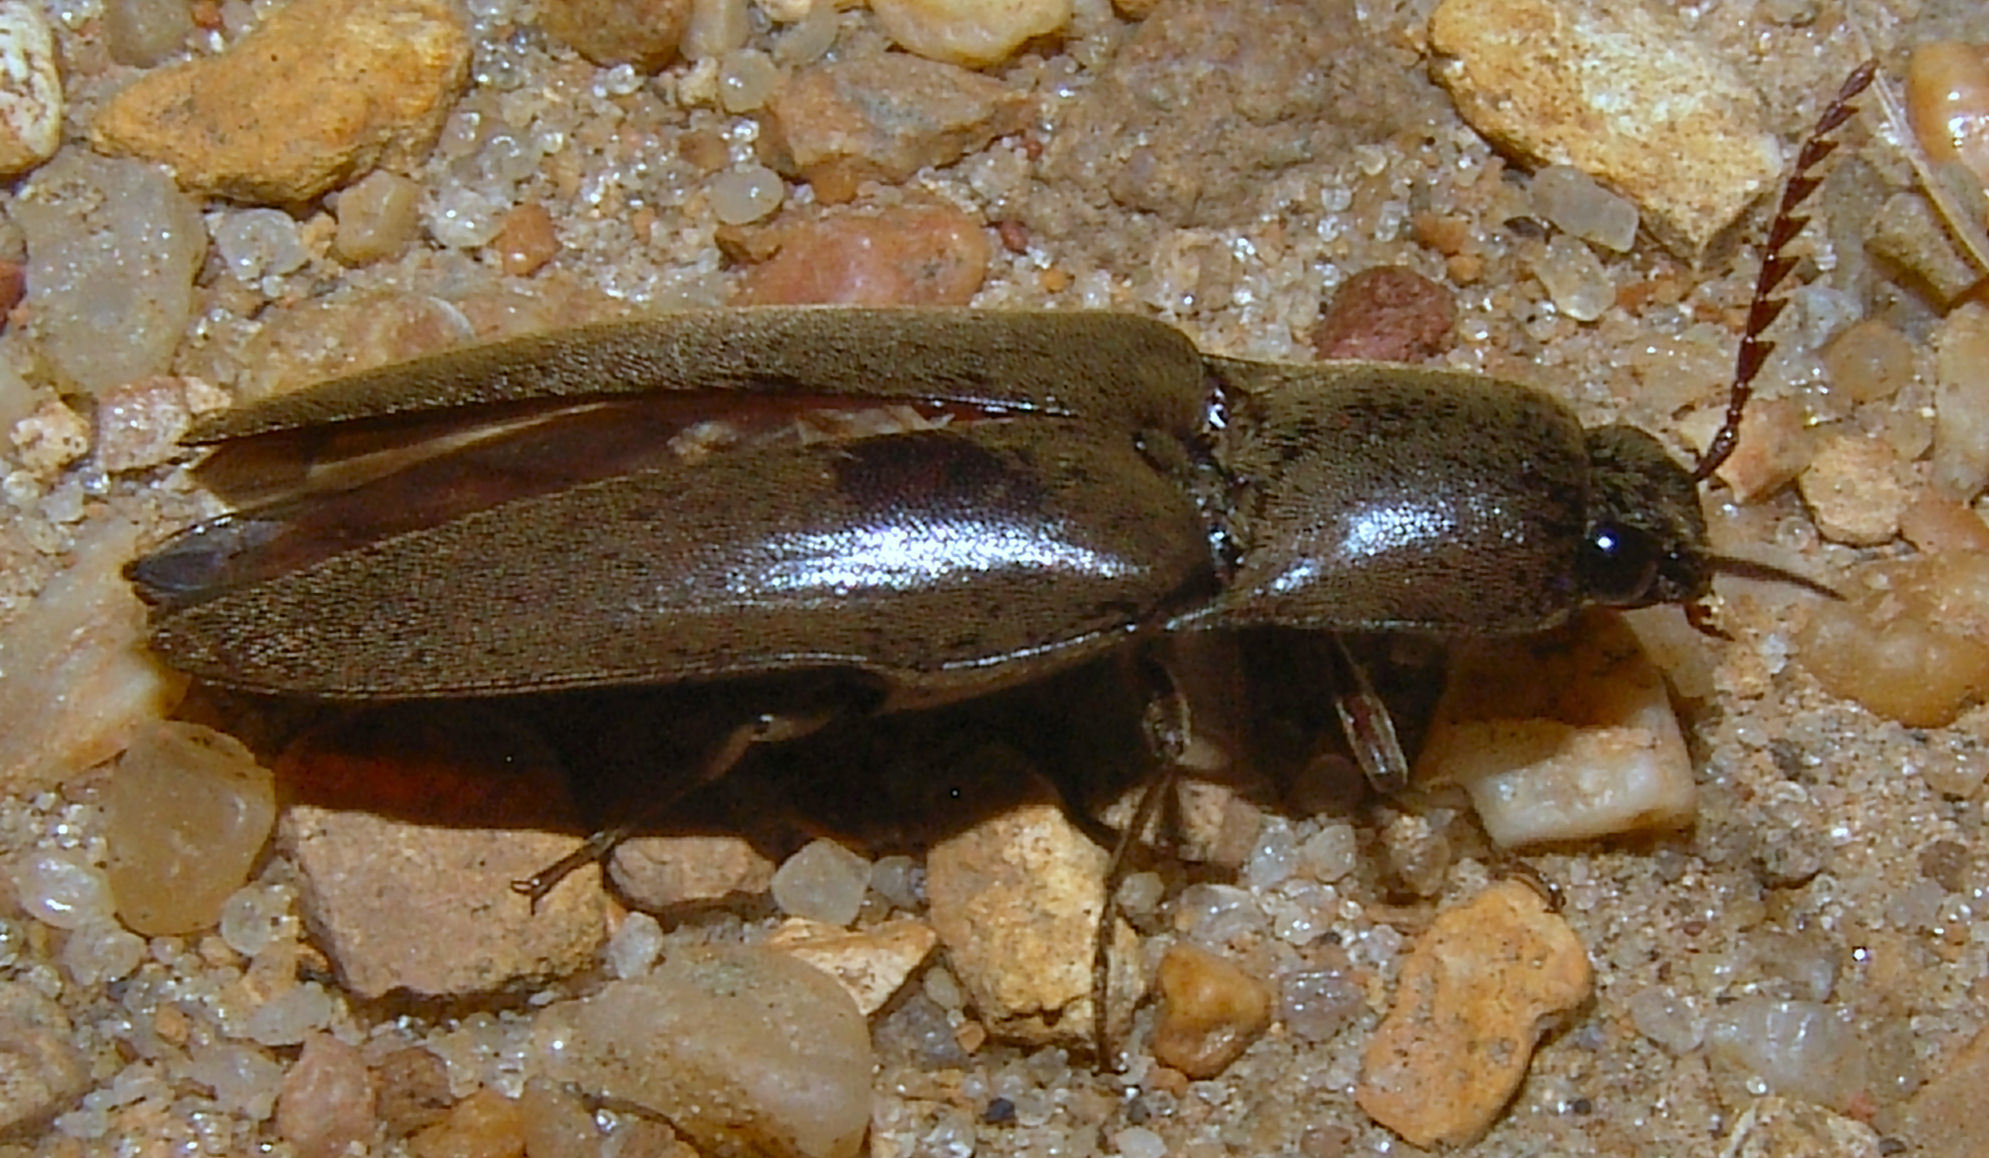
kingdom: Animalia
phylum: Arthropoda
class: Insecta
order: Coleoptera
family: Elateridae
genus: Orthostethus
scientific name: Orthostethus infuscatus
